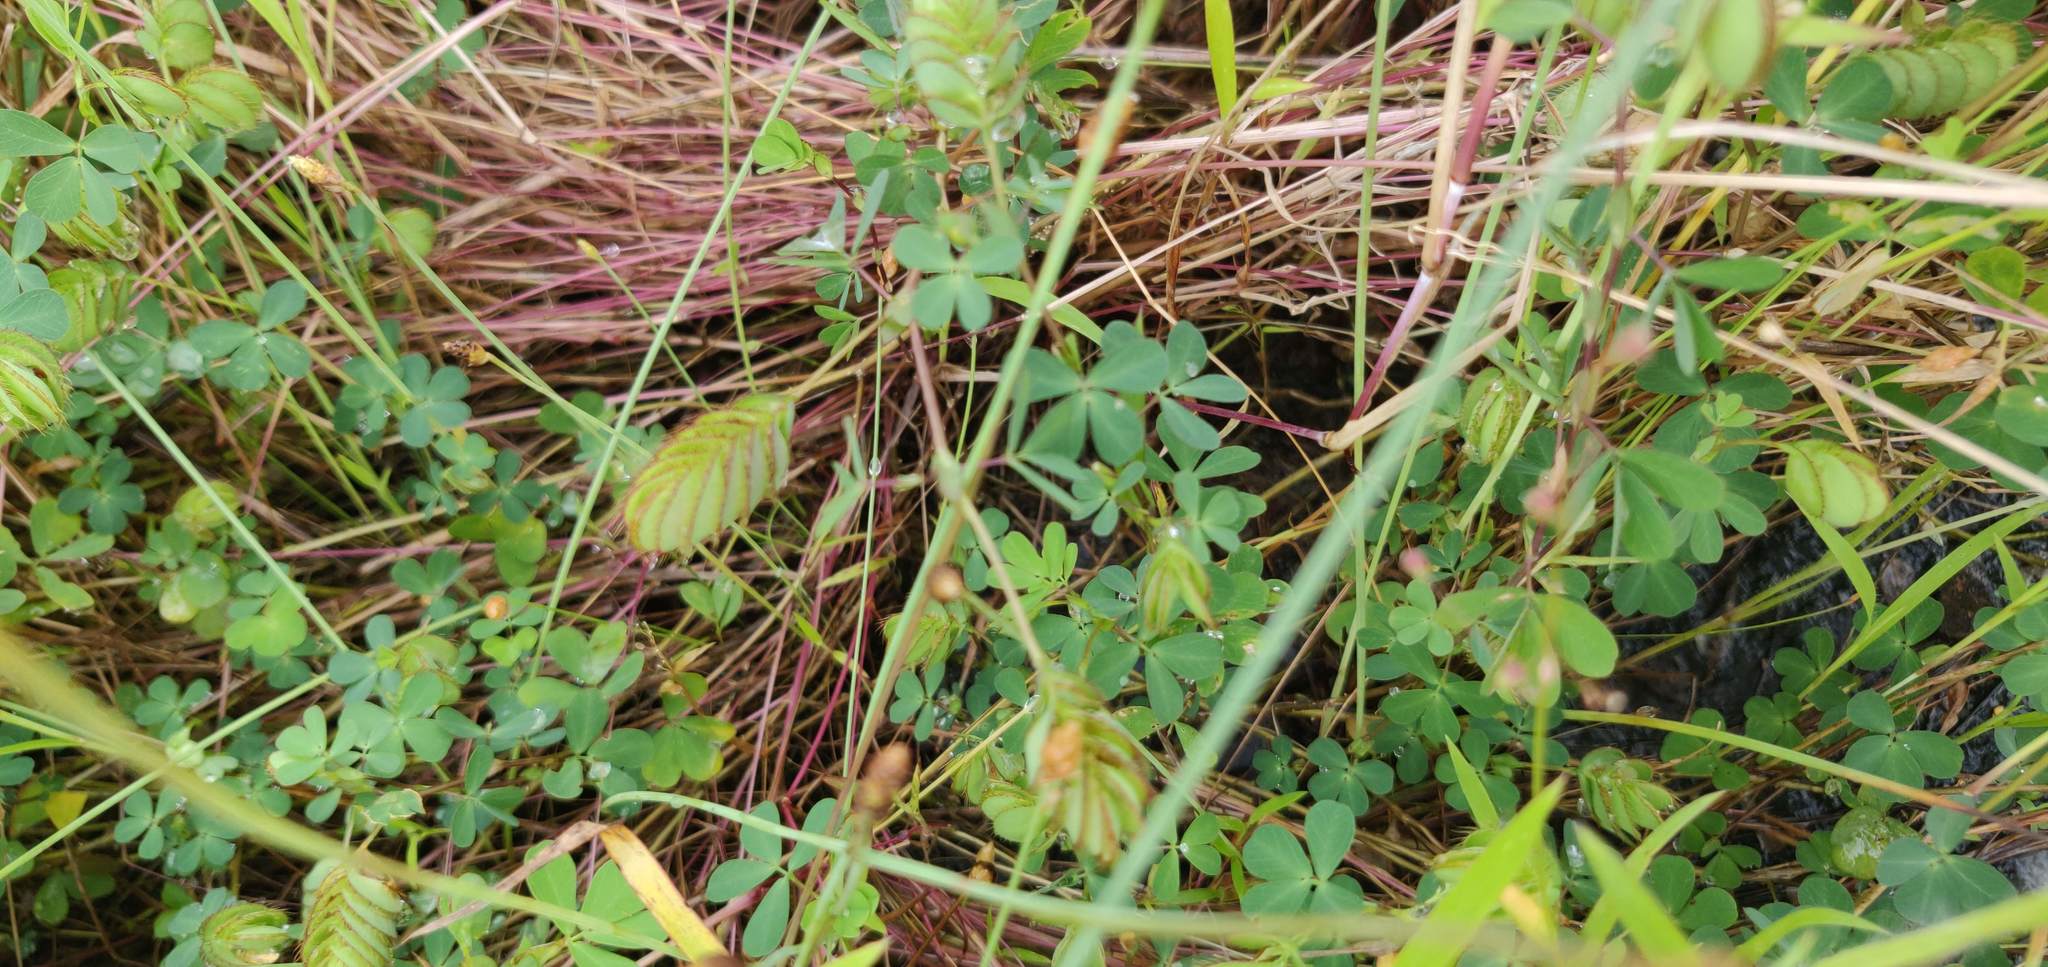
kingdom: Plantae
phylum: Tracheophyta
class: Magnoliopsida
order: Fabales
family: Fabaceae
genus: Geissaspis
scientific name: Geissaspis cristata
